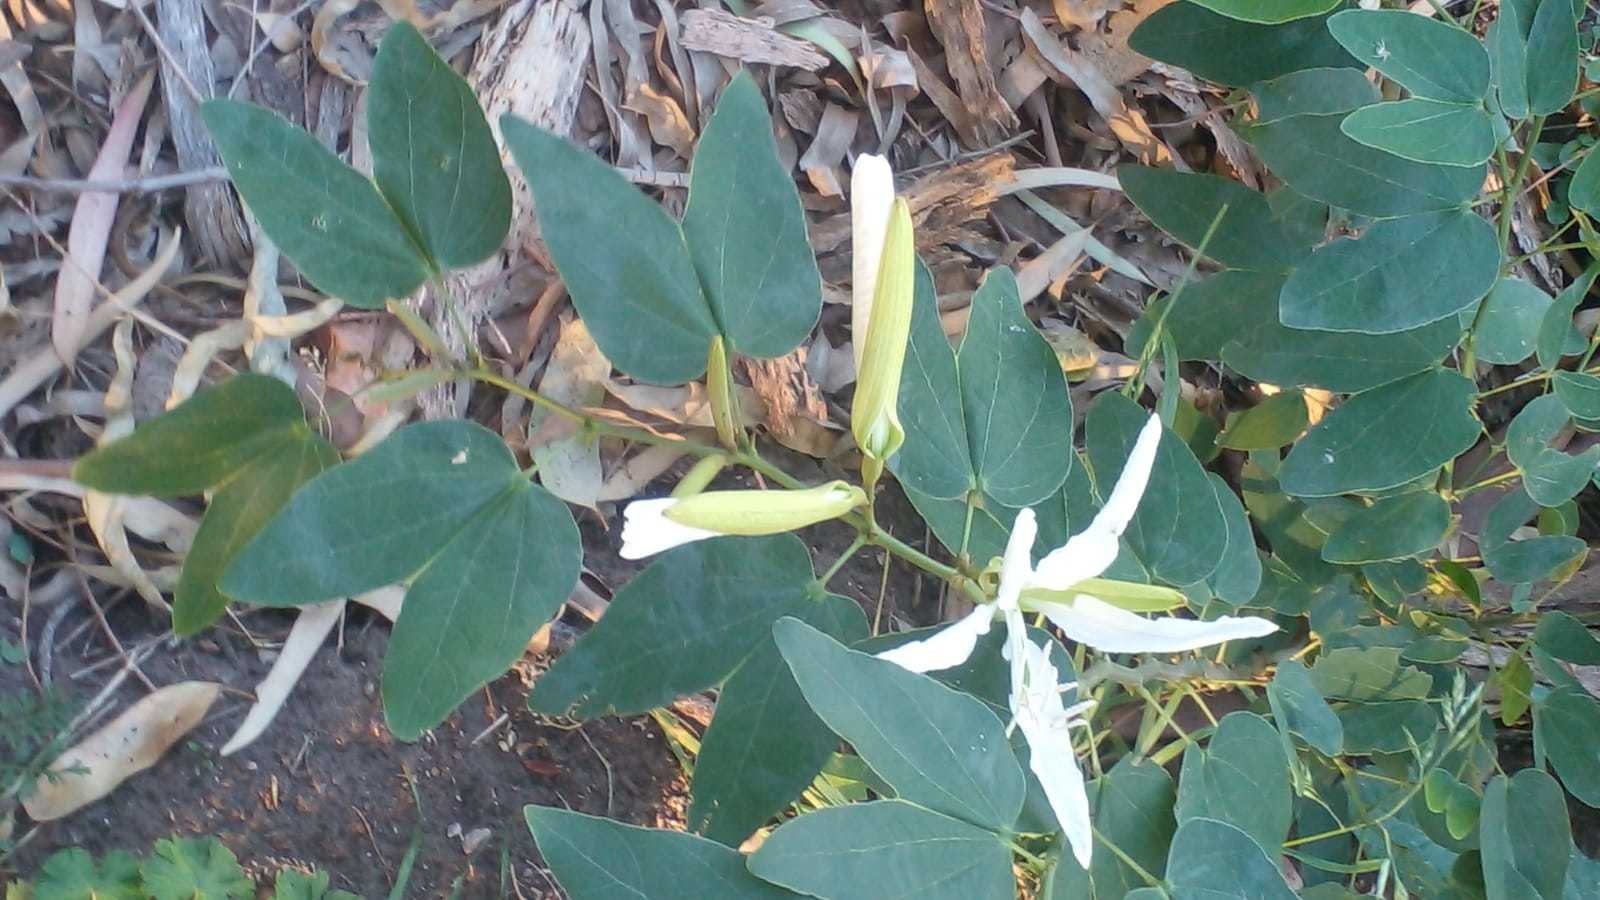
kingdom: Plantae
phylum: Tracheophyta
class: Magnoliopsida
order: Fabales
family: Fabaceae
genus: Bauhinia
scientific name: Bauhinia forficata
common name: Orchid tree
